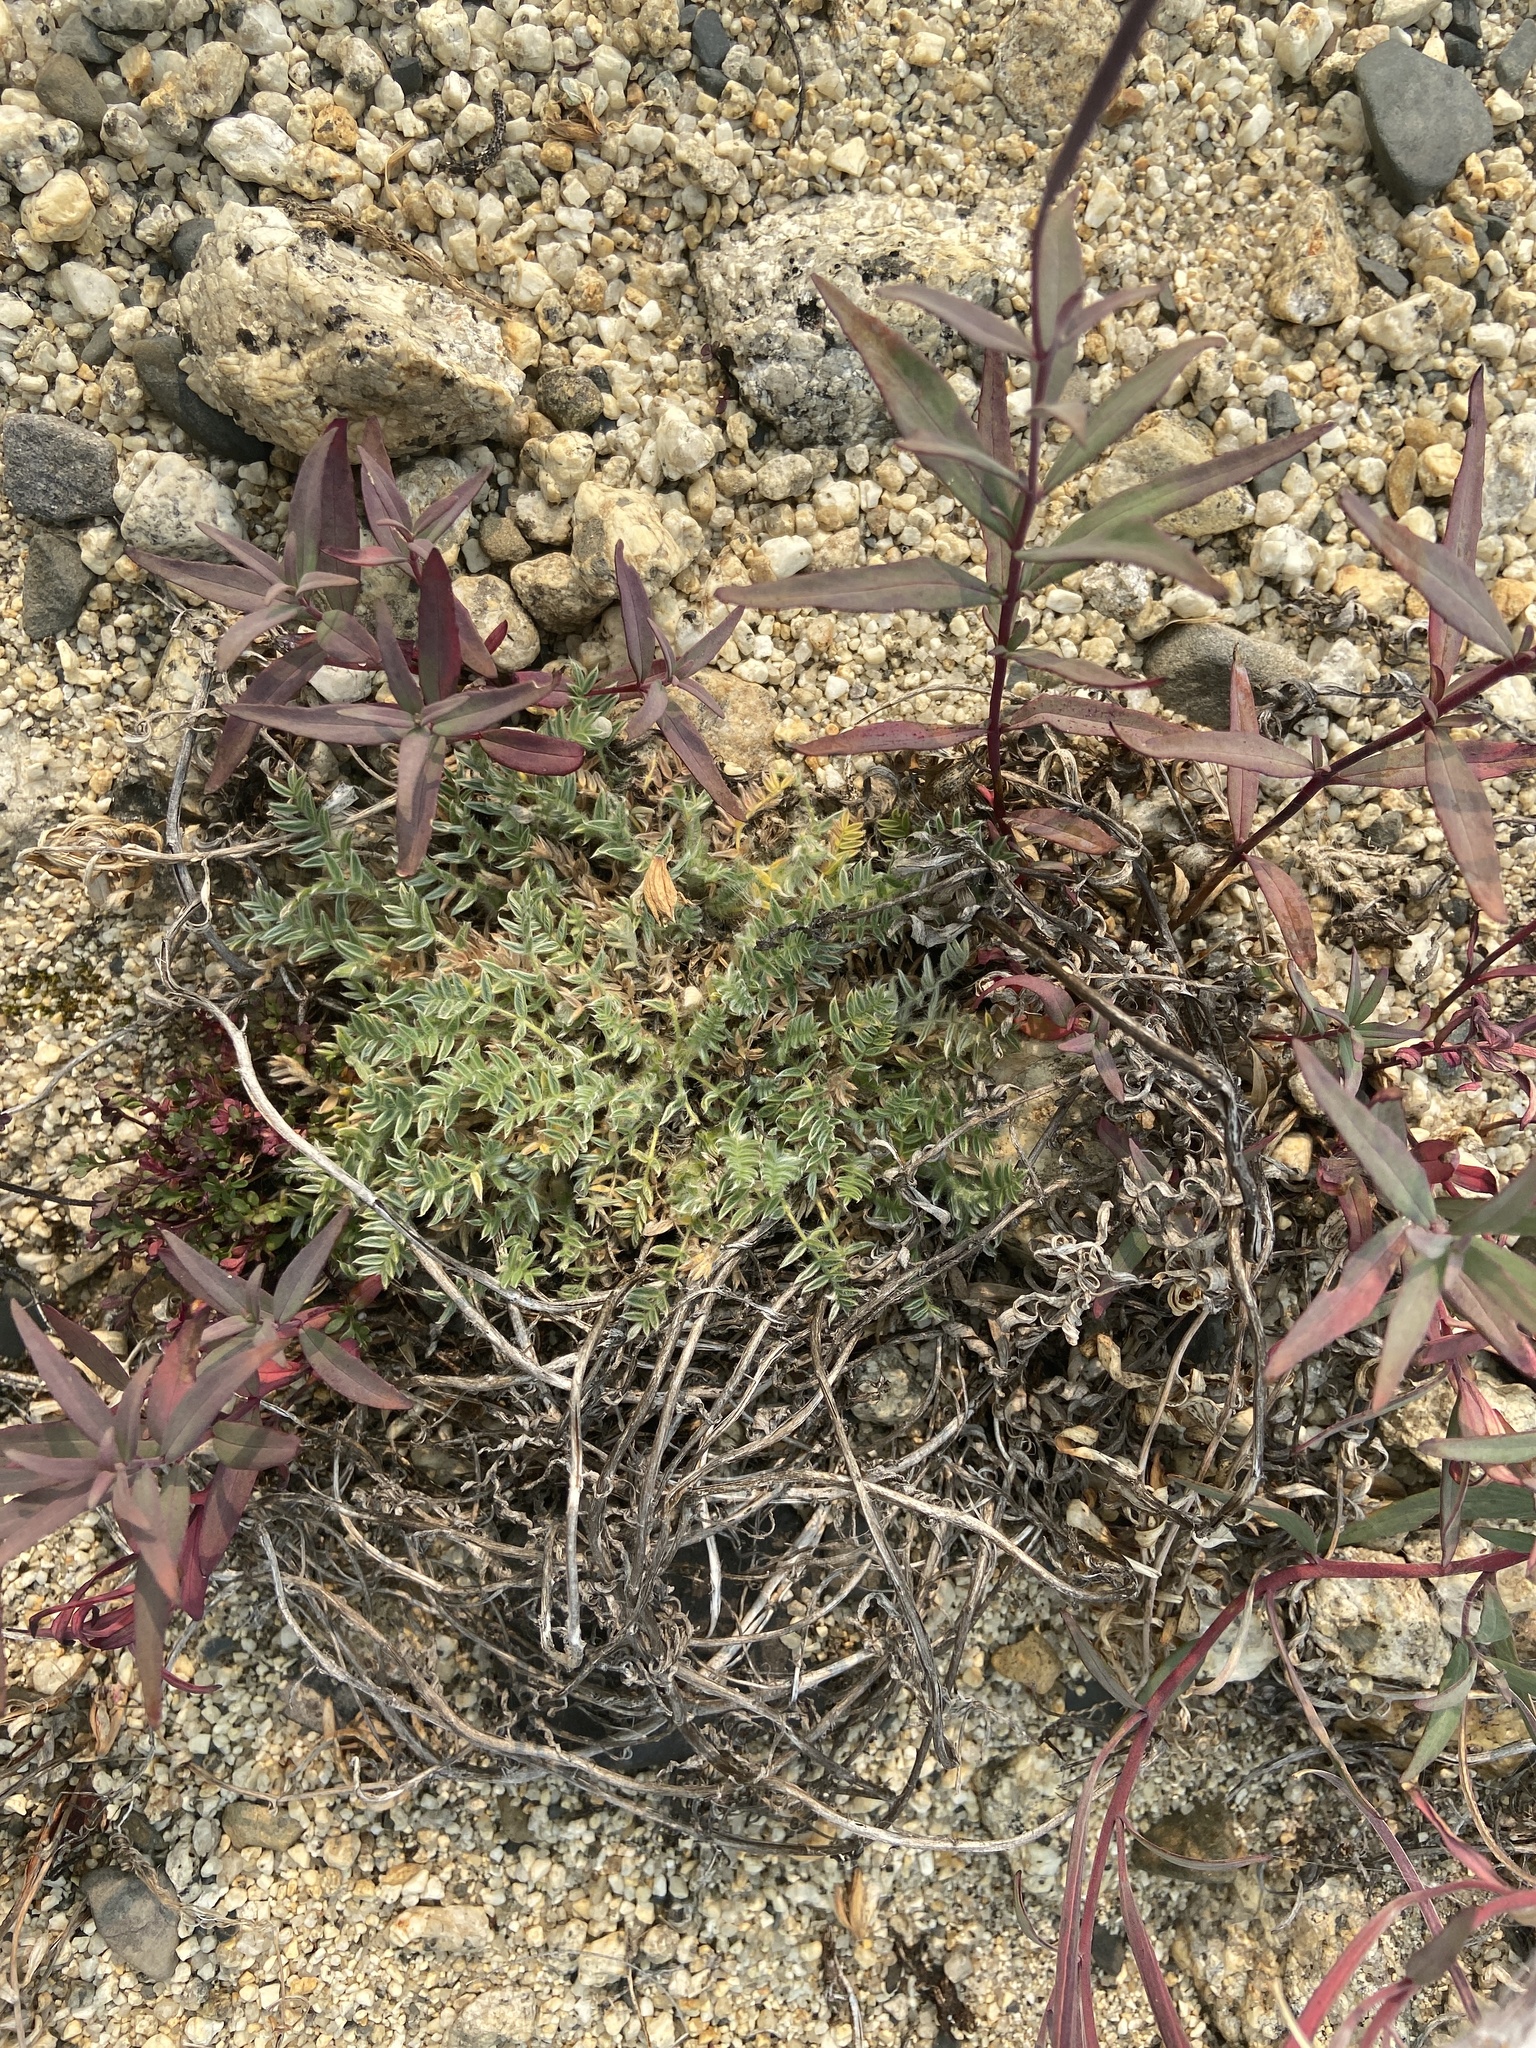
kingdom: Plantae
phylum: Tracheophyta
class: Magnoliopsida
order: Fabales
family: Fabaceae
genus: Oxytropis
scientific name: Oxytropis susumanica
